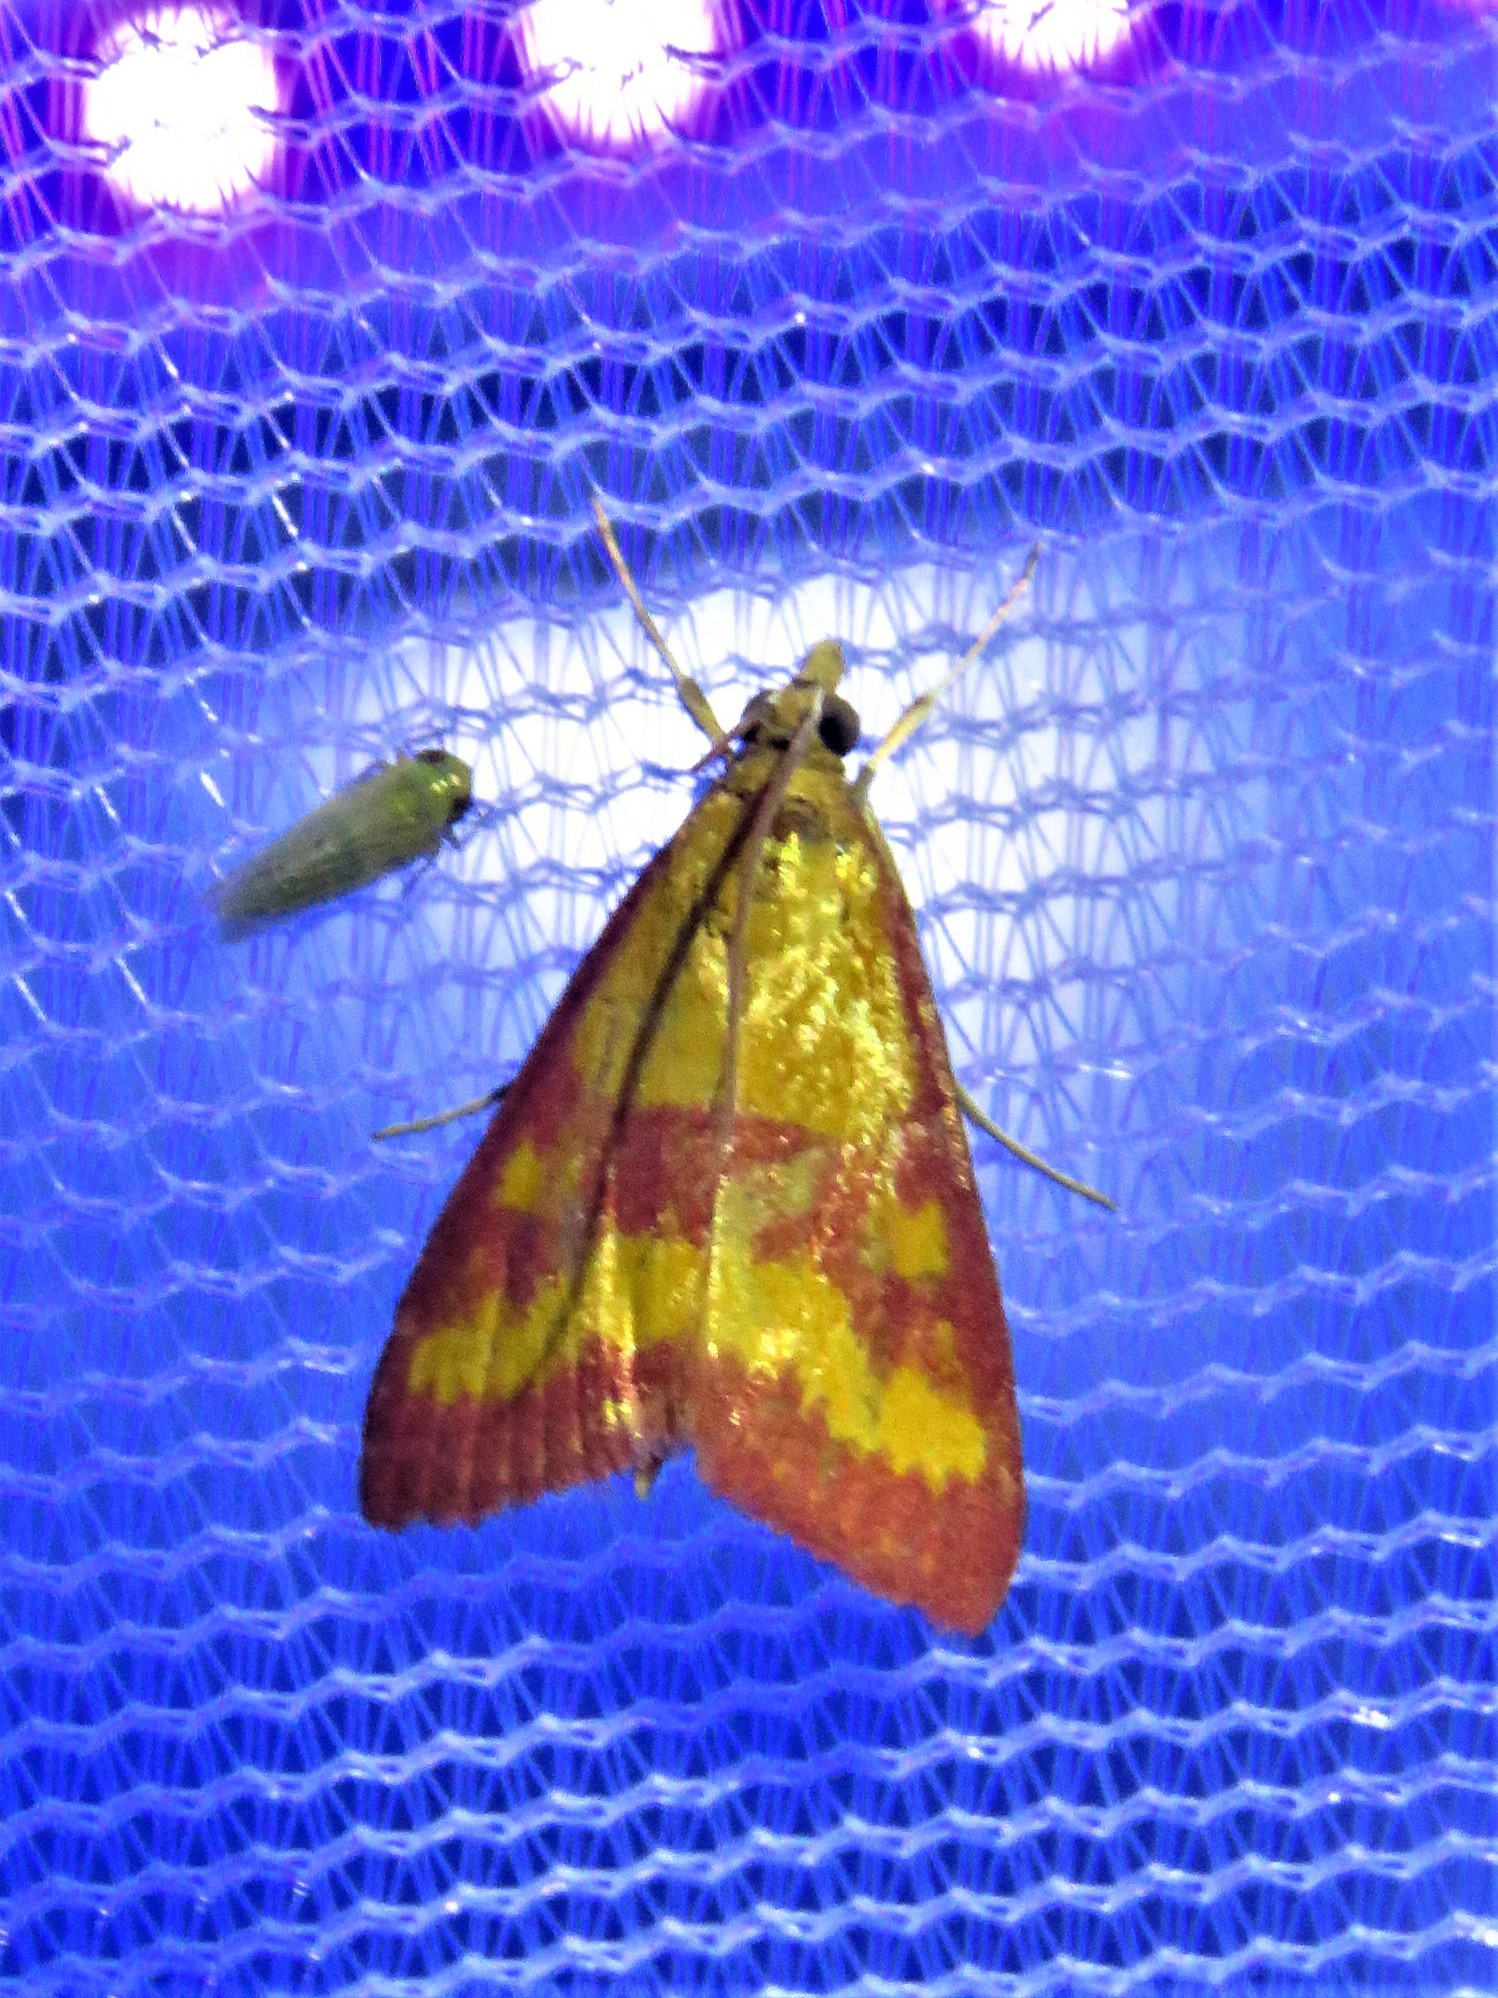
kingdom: Animalia
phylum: Arthropoda
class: Insecta
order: Lepidoptera
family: Crambidae
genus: Pyrausta
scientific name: Pyrausta laticlavia
